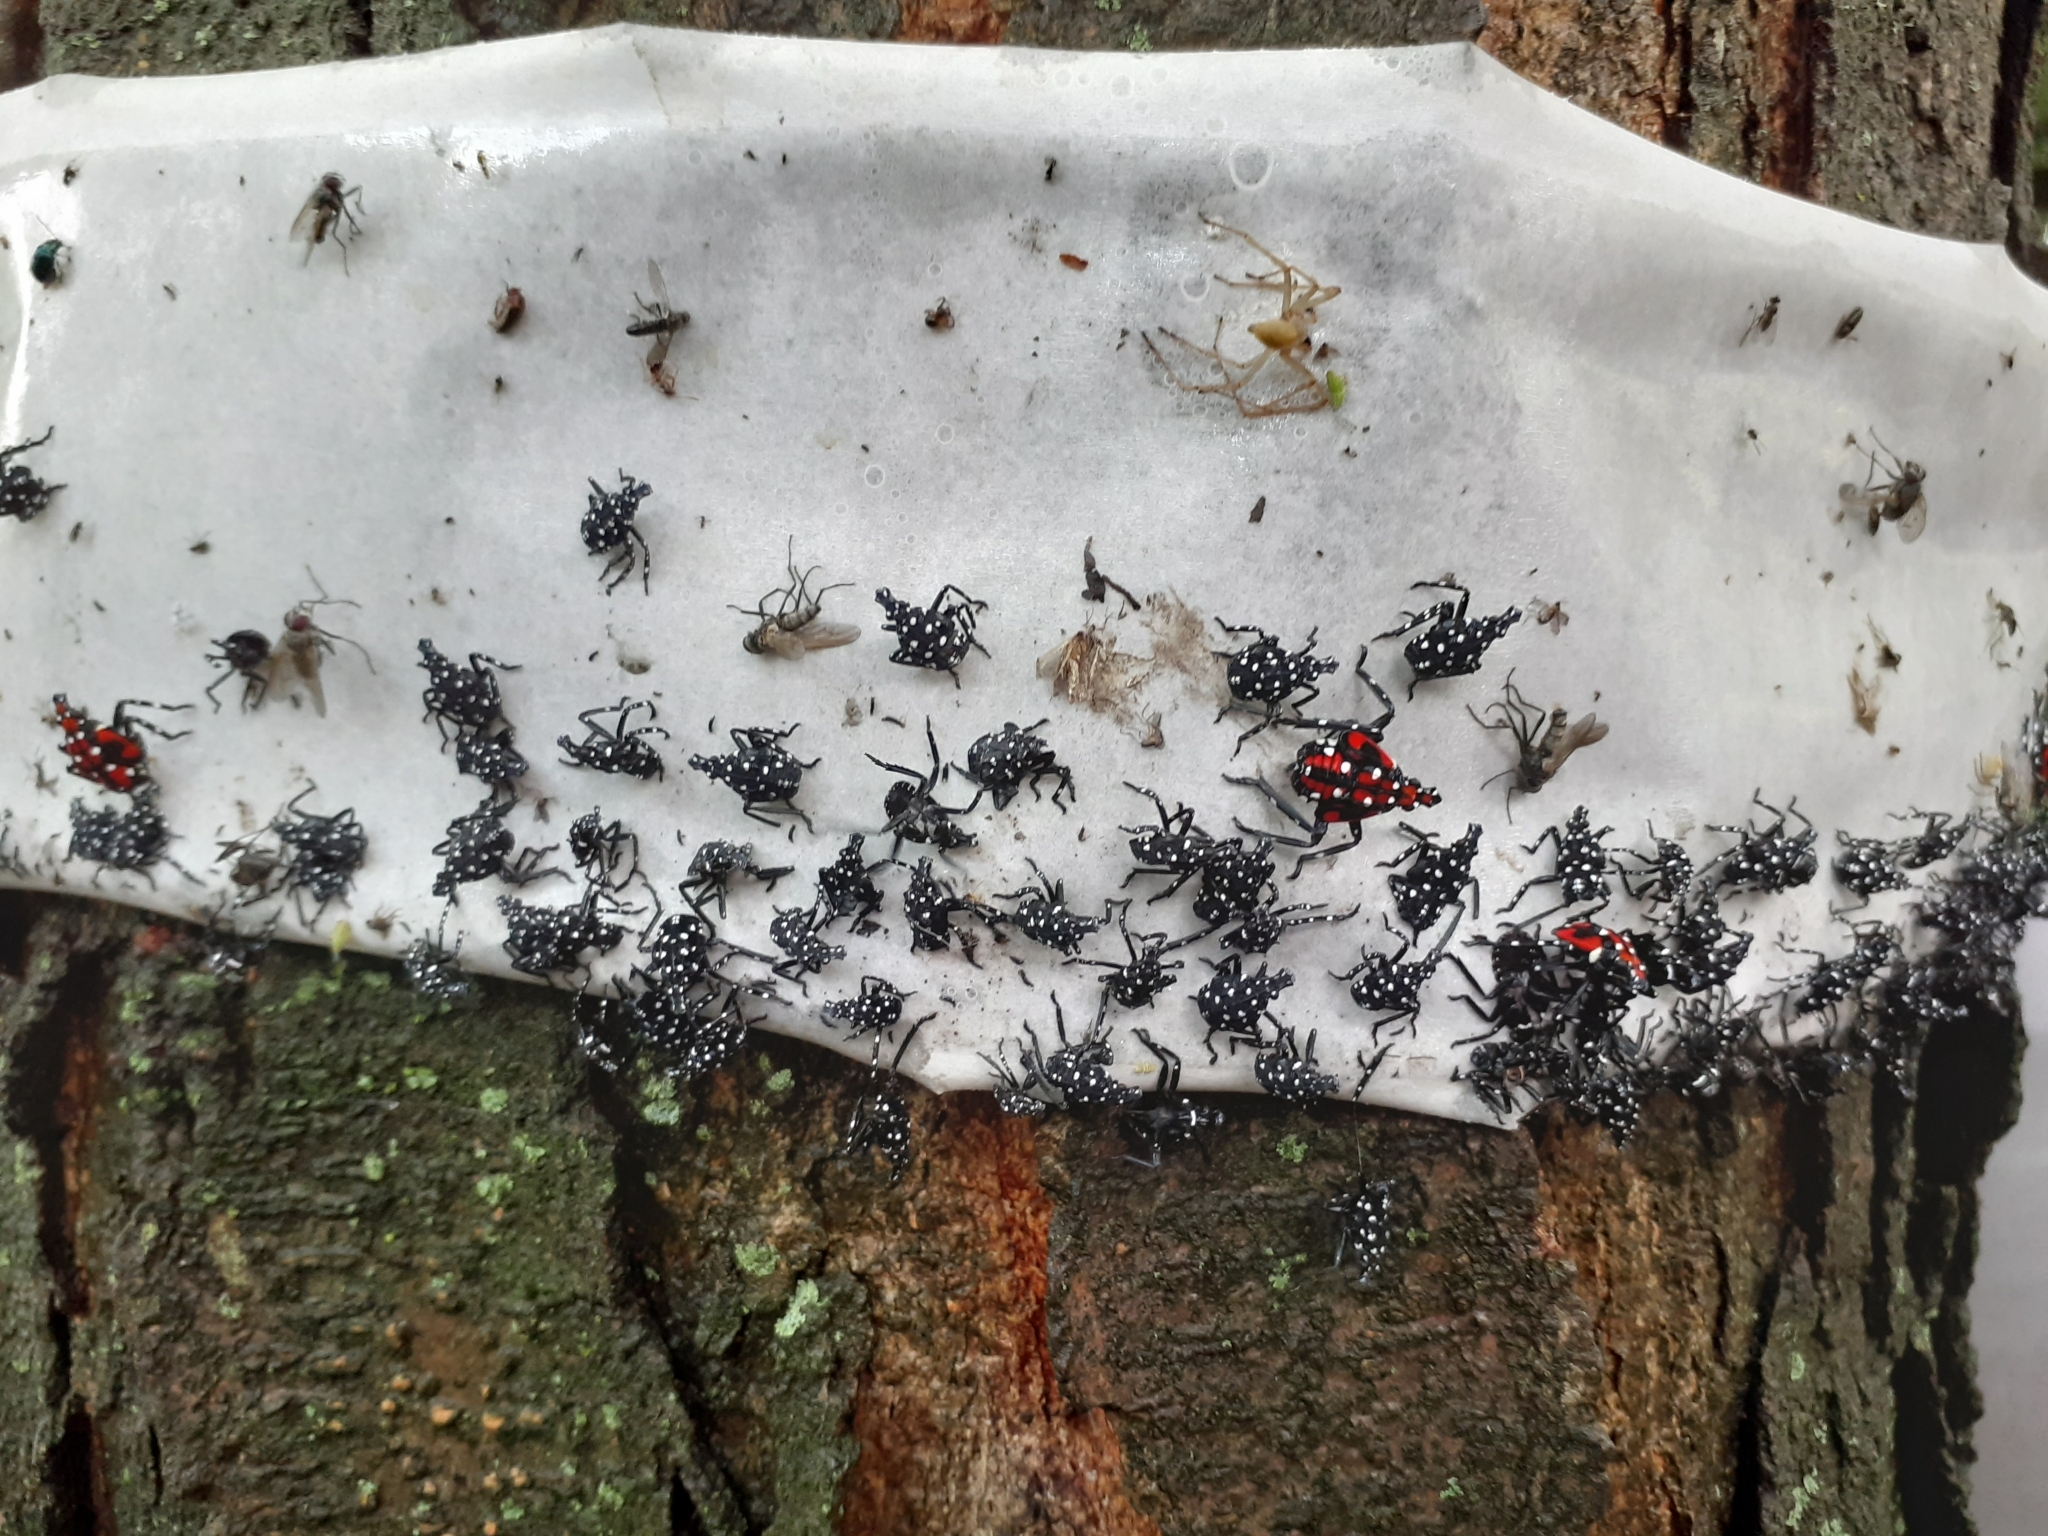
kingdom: Animalia
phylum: Arthropoda
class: Insecta
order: Hemiptera
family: Fulgoridae
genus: Lycorma
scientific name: Lycorma delicatula
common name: Spotted lanternfly
